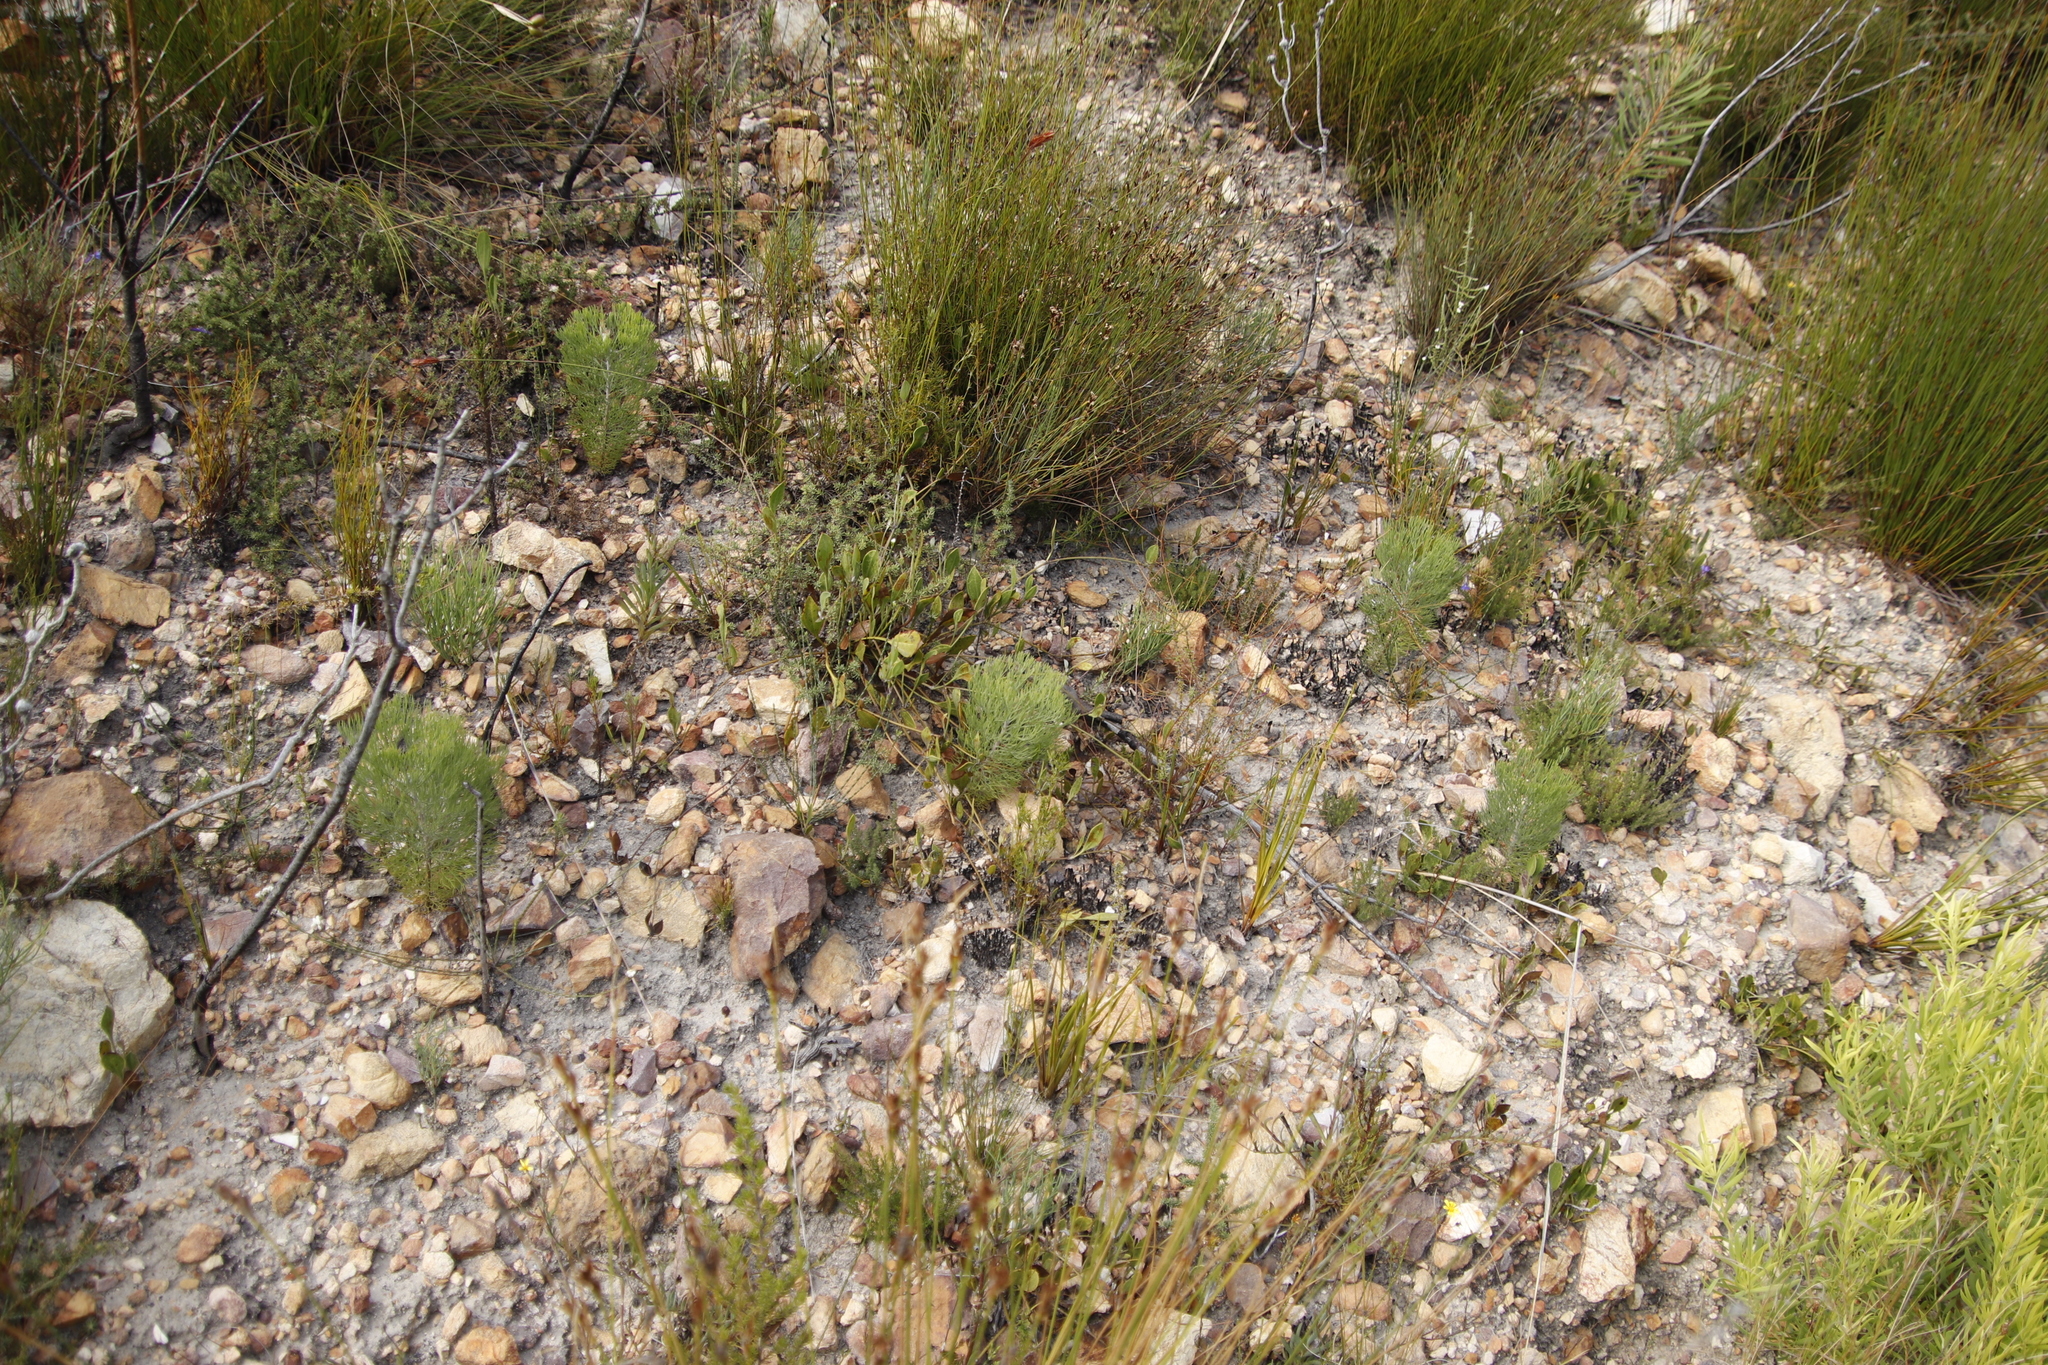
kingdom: Plantae
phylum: Tracheophyta
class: Magnoliopsida
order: Proteales
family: Proteaceae
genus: Paranomus
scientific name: Paranomus dispersus
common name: Long-head sceptre
